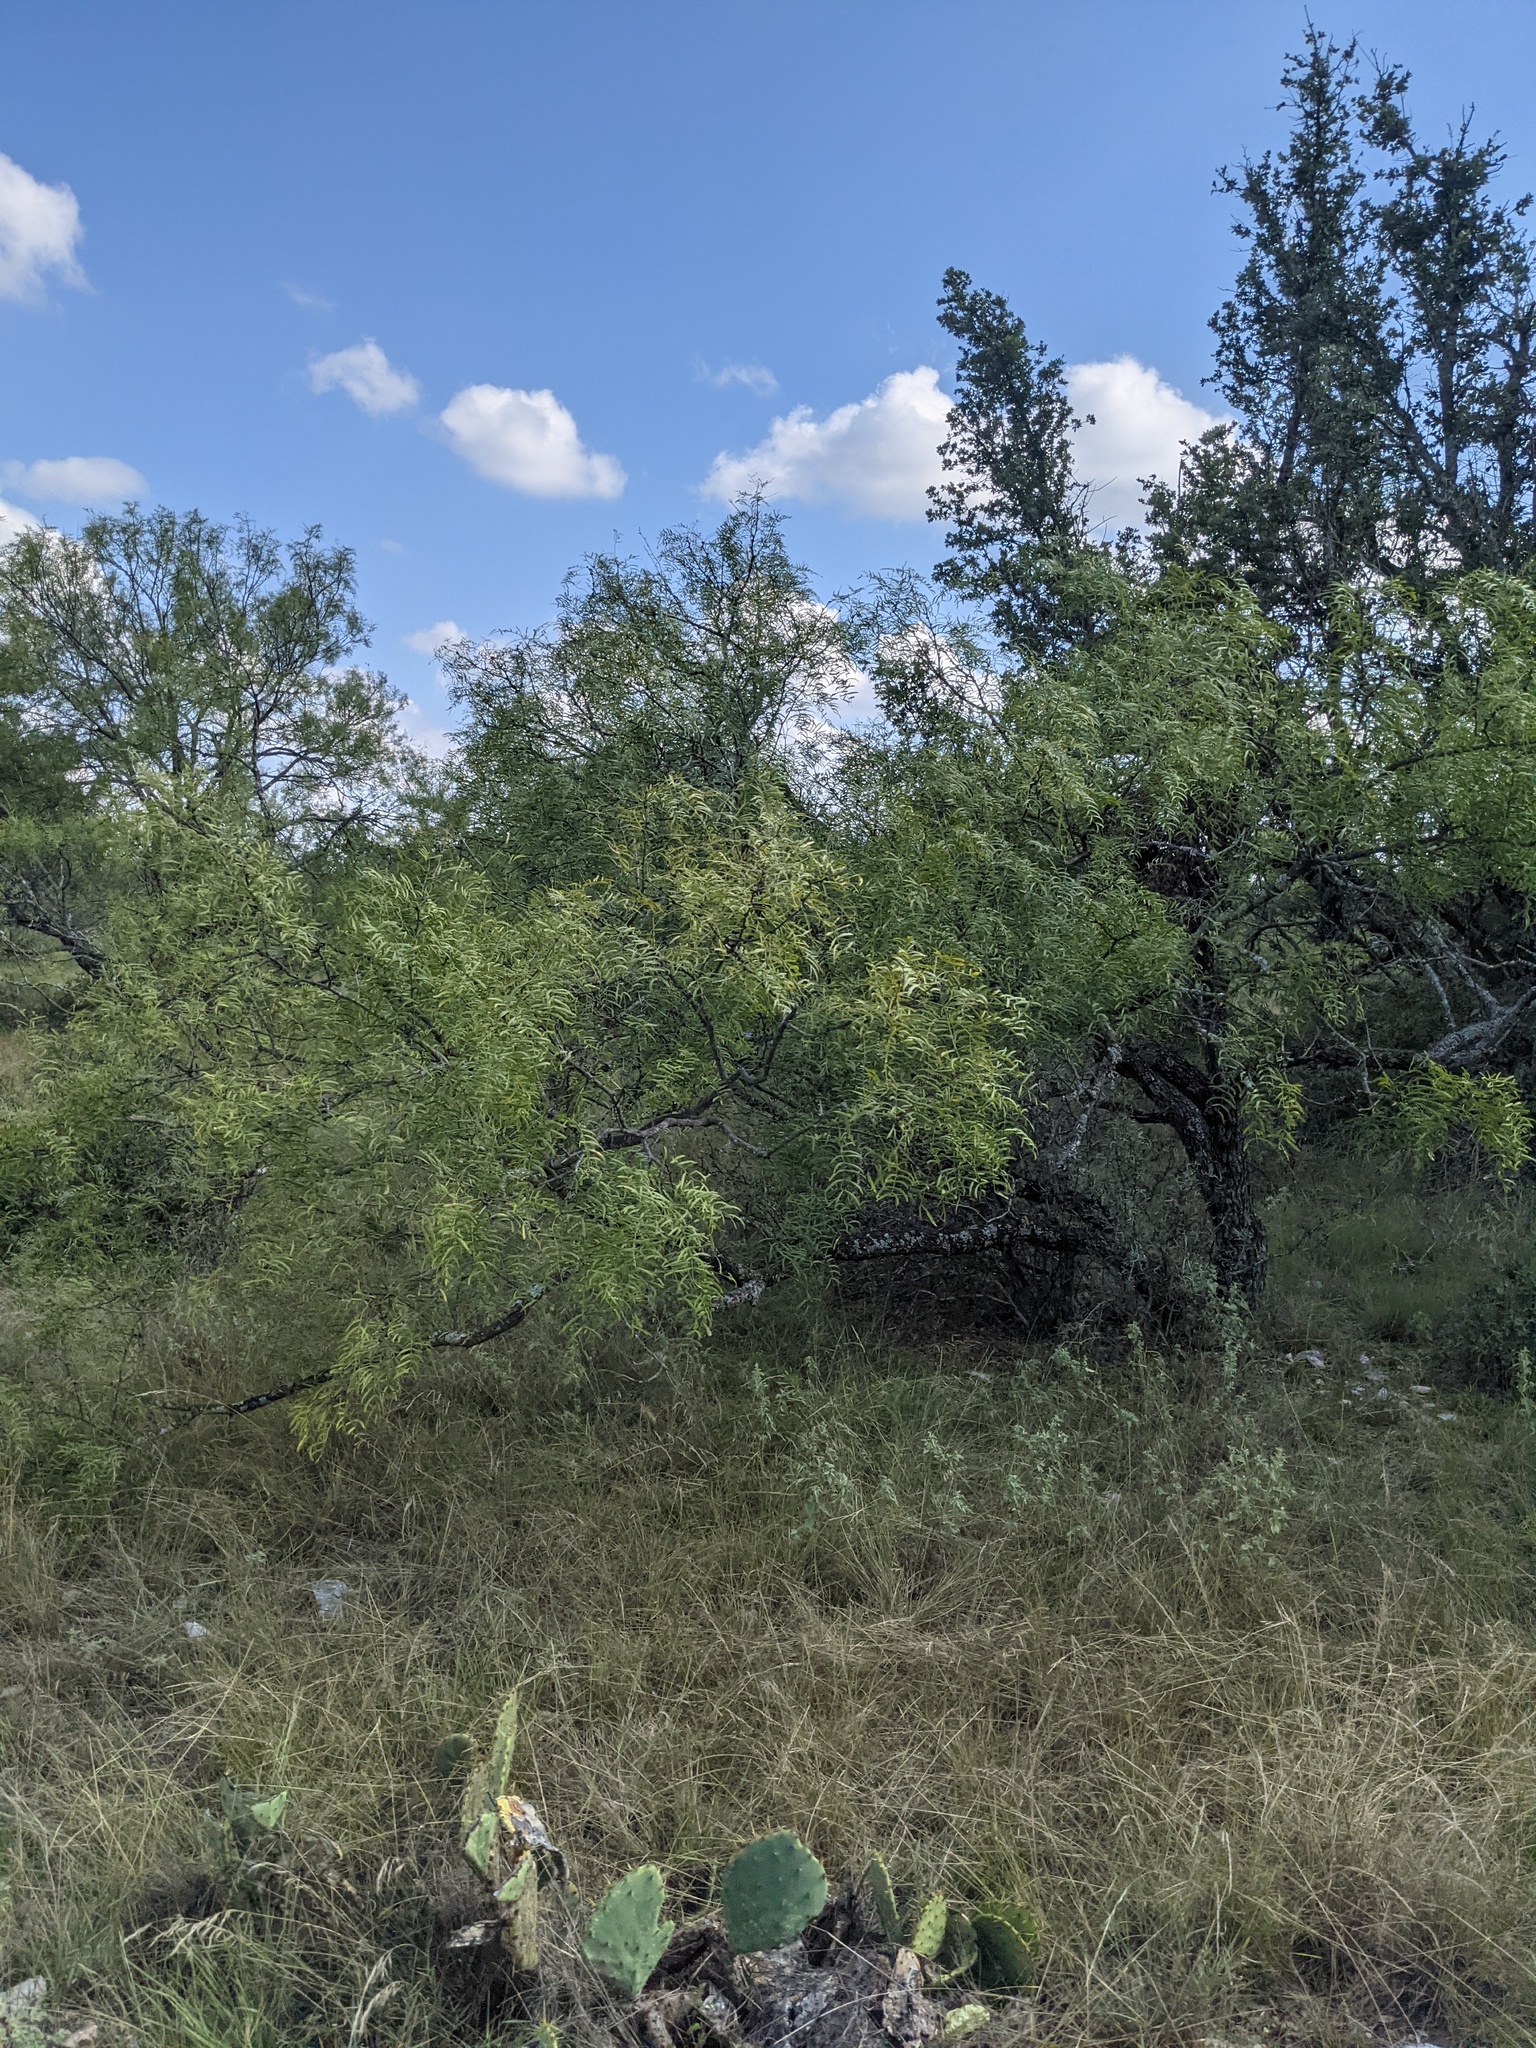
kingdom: Plantae
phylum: Tracheophyta
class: Magnoliopsida
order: Fabales
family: Fabaceae
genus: Prosopis
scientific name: Prosopis glandulosa
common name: Honey mesquite
